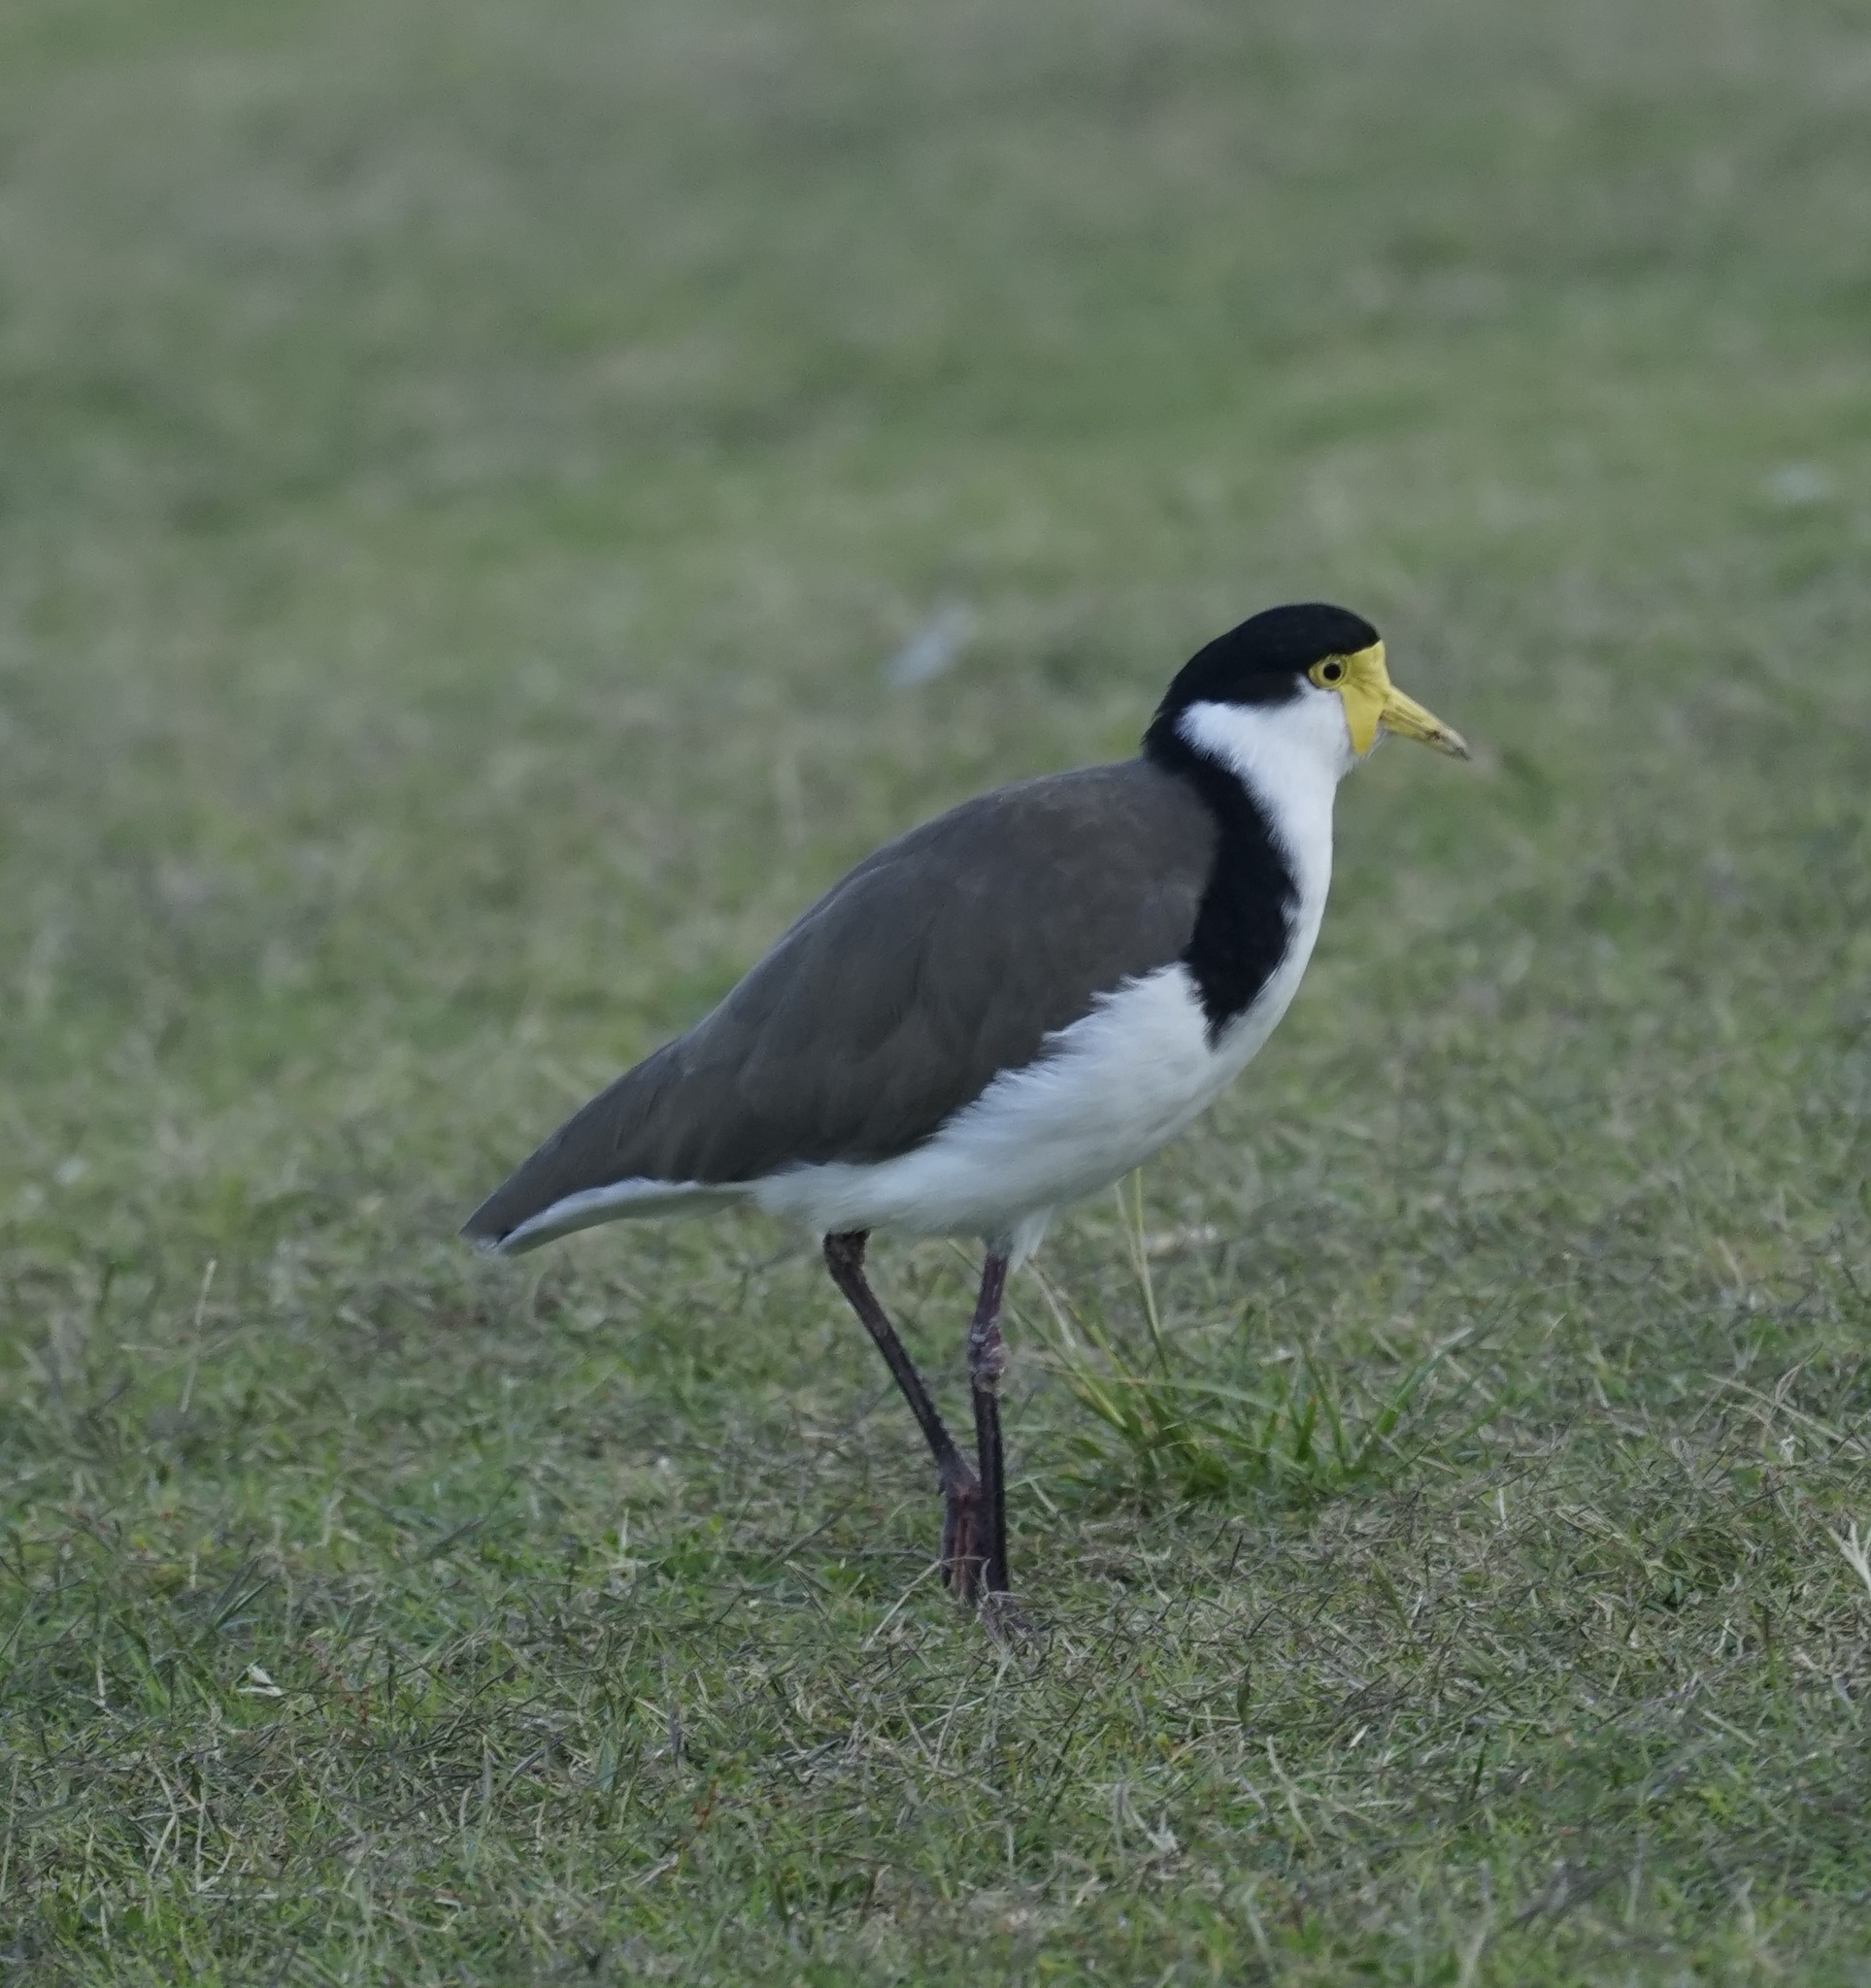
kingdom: Animalia
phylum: Chordata
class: Aves
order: Charadriiformes
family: Charadriidae
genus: Vanellus
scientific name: Vanellus miles
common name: Masked lapwing
